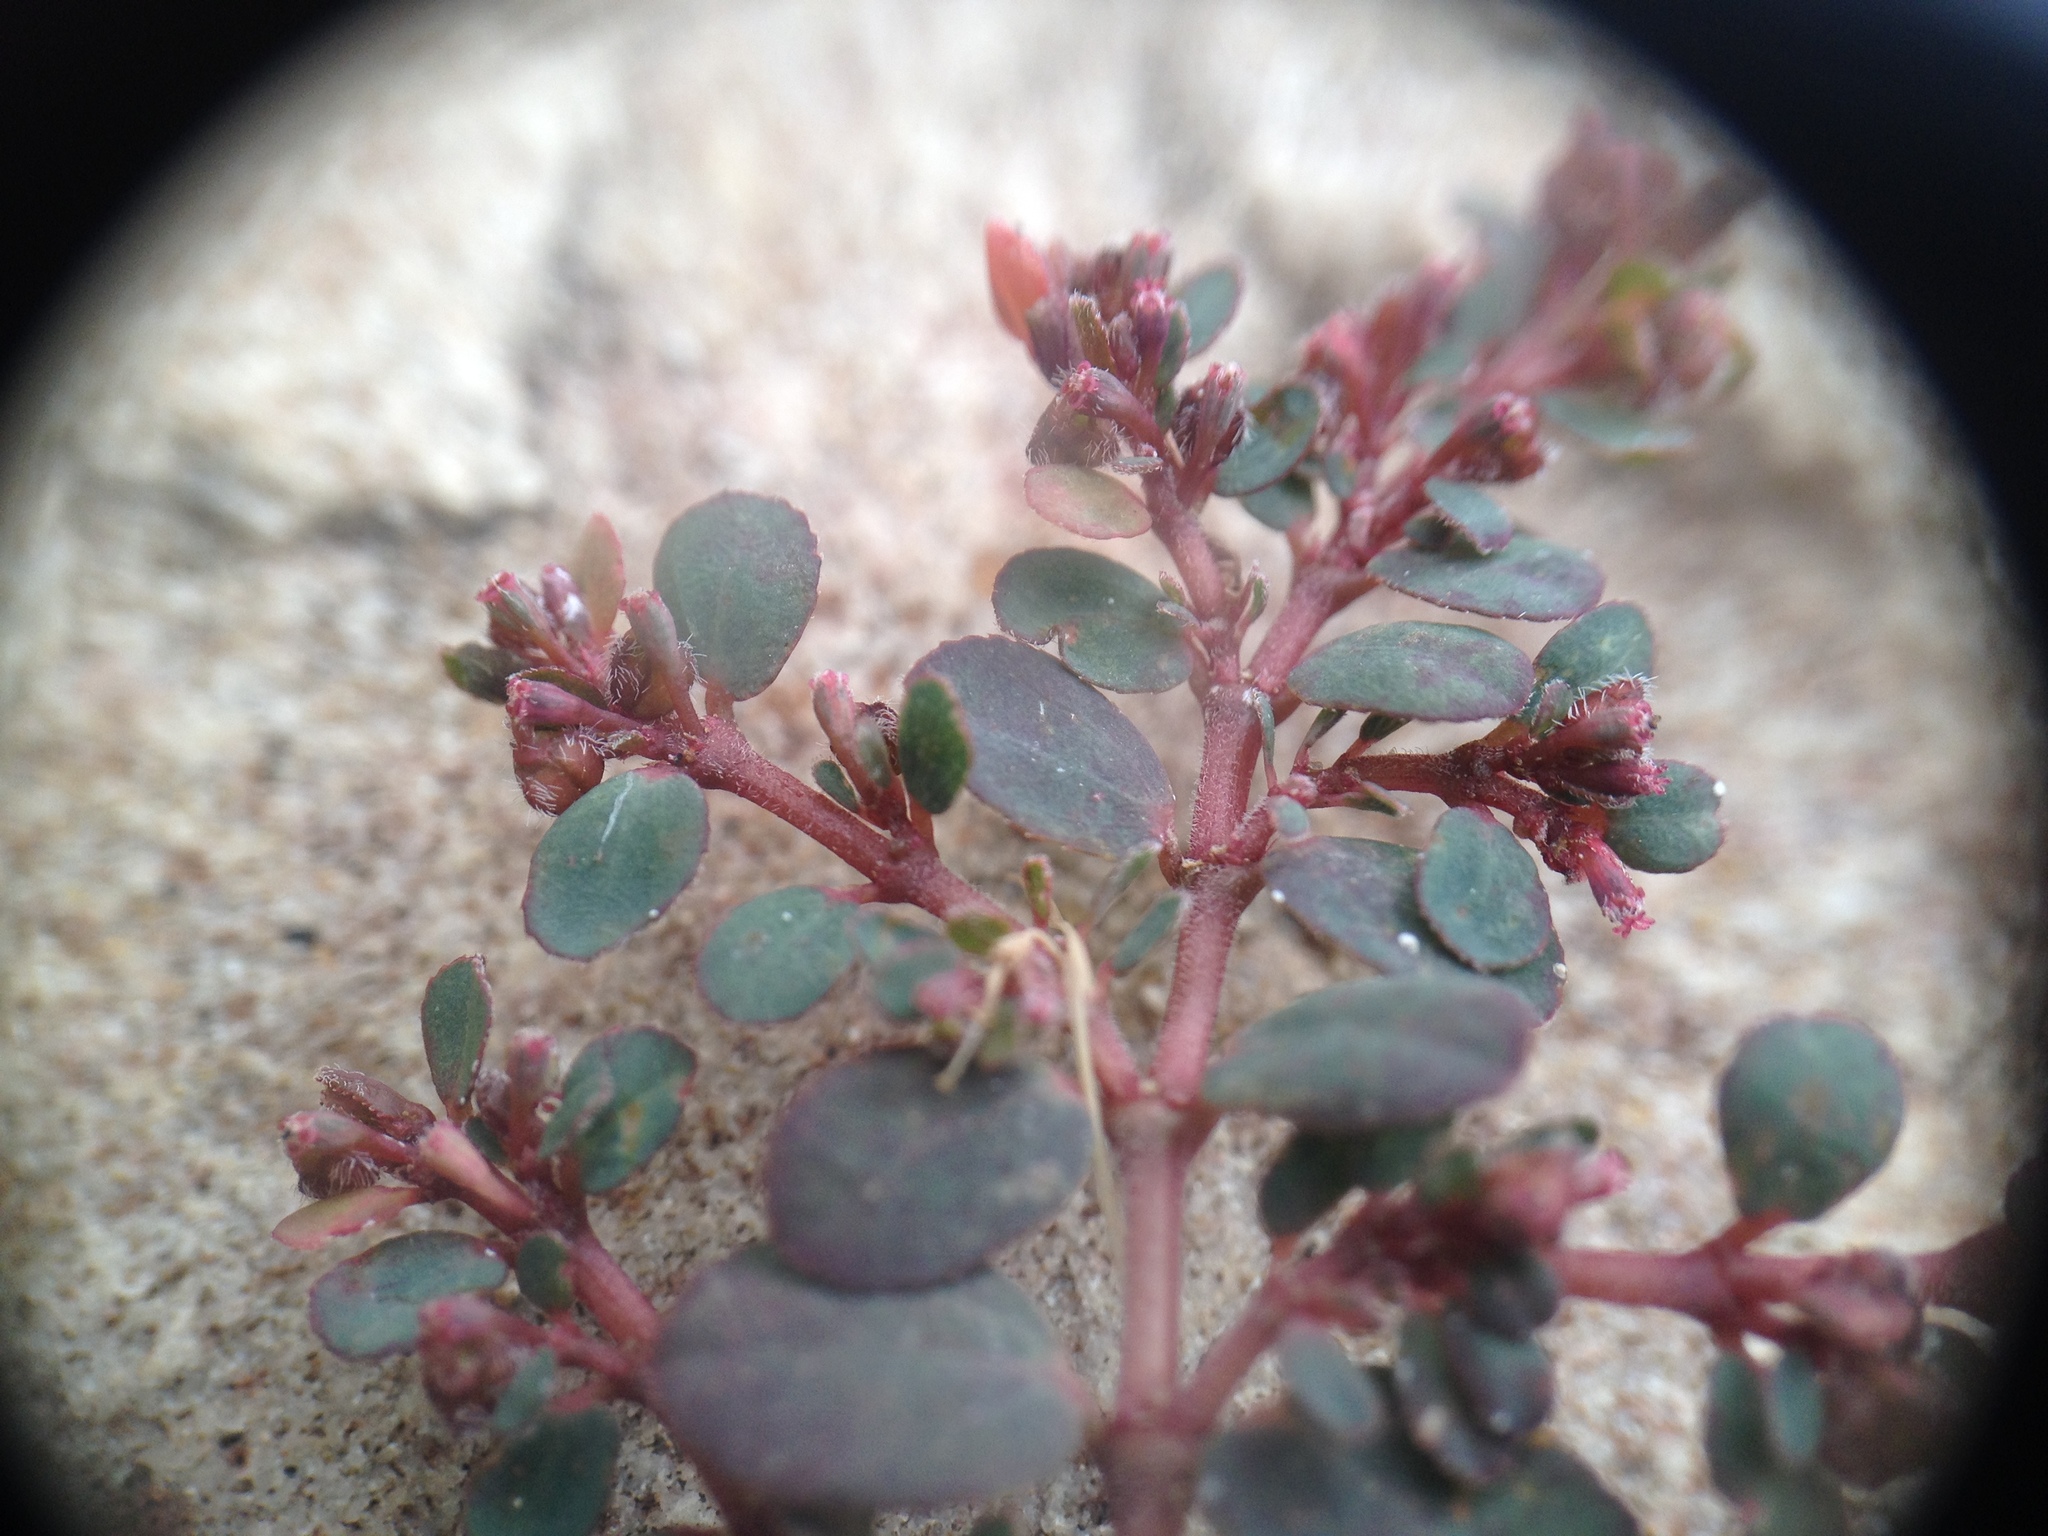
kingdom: Plantae
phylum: Tracheophyta
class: Magnoliopsida
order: Malpighiales
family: Euphorbiaceae
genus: Euphorbia
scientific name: Euphorbia prostrata
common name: Prostrate sandmat
